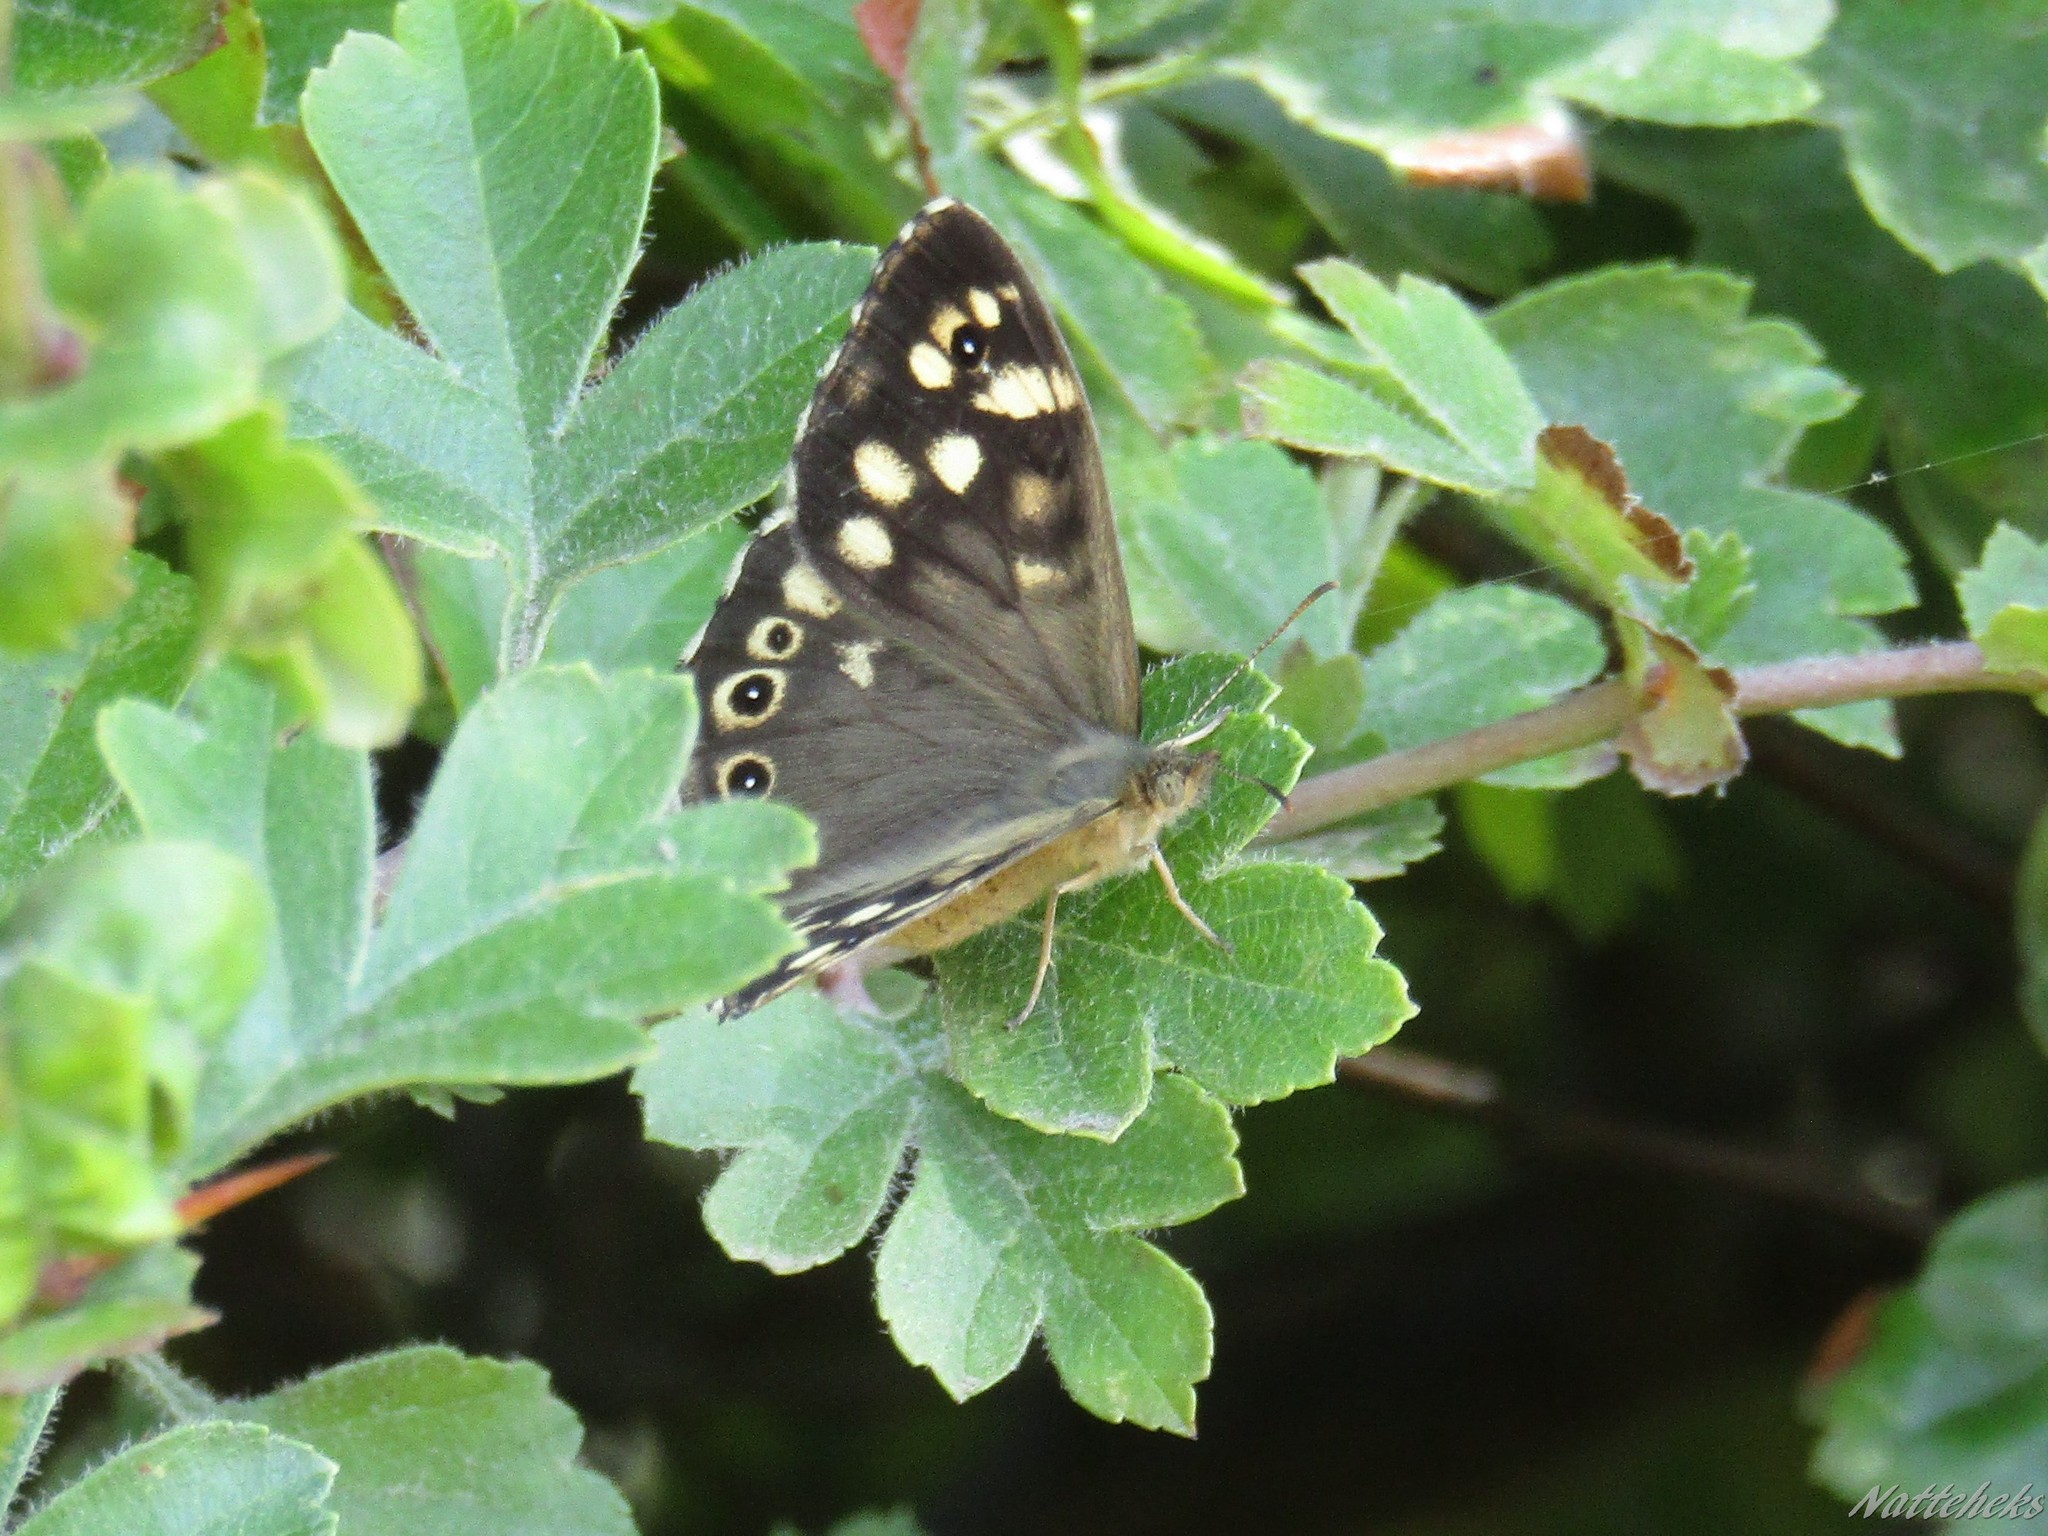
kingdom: Animalia
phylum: Arthropoda
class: Insecta
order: Lepidoptera
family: Nymphalidae
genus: Pararge
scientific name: Pararge aegeria
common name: Speckled wood
